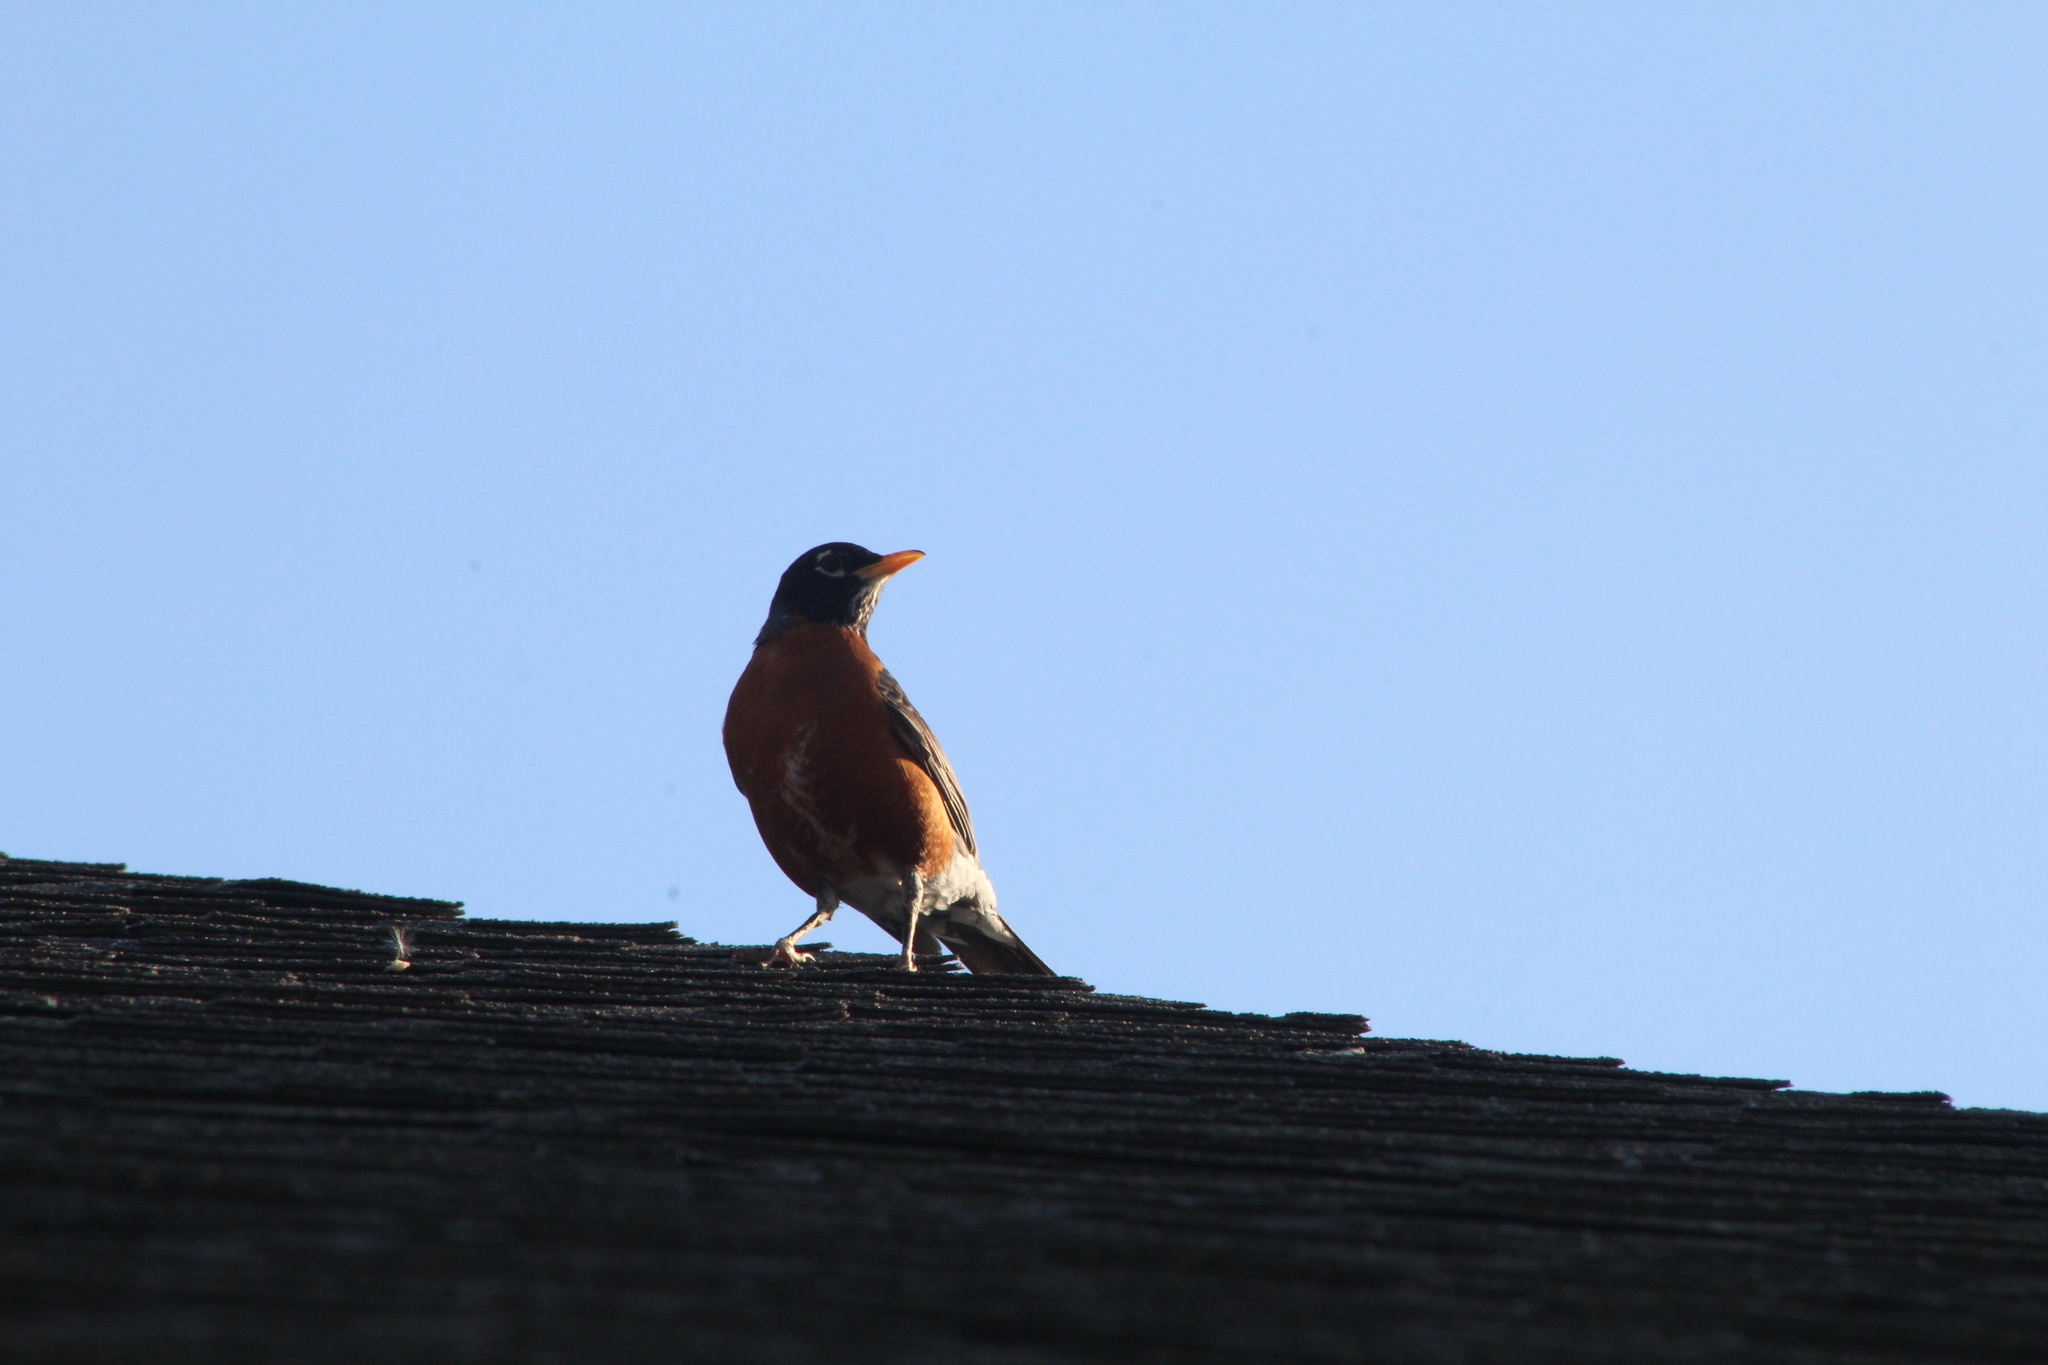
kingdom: Animalia
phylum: Chordata
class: Aves
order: Passeriformes
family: Turdidae
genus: Turdus
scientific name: Turdus migratorius
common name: American robin
